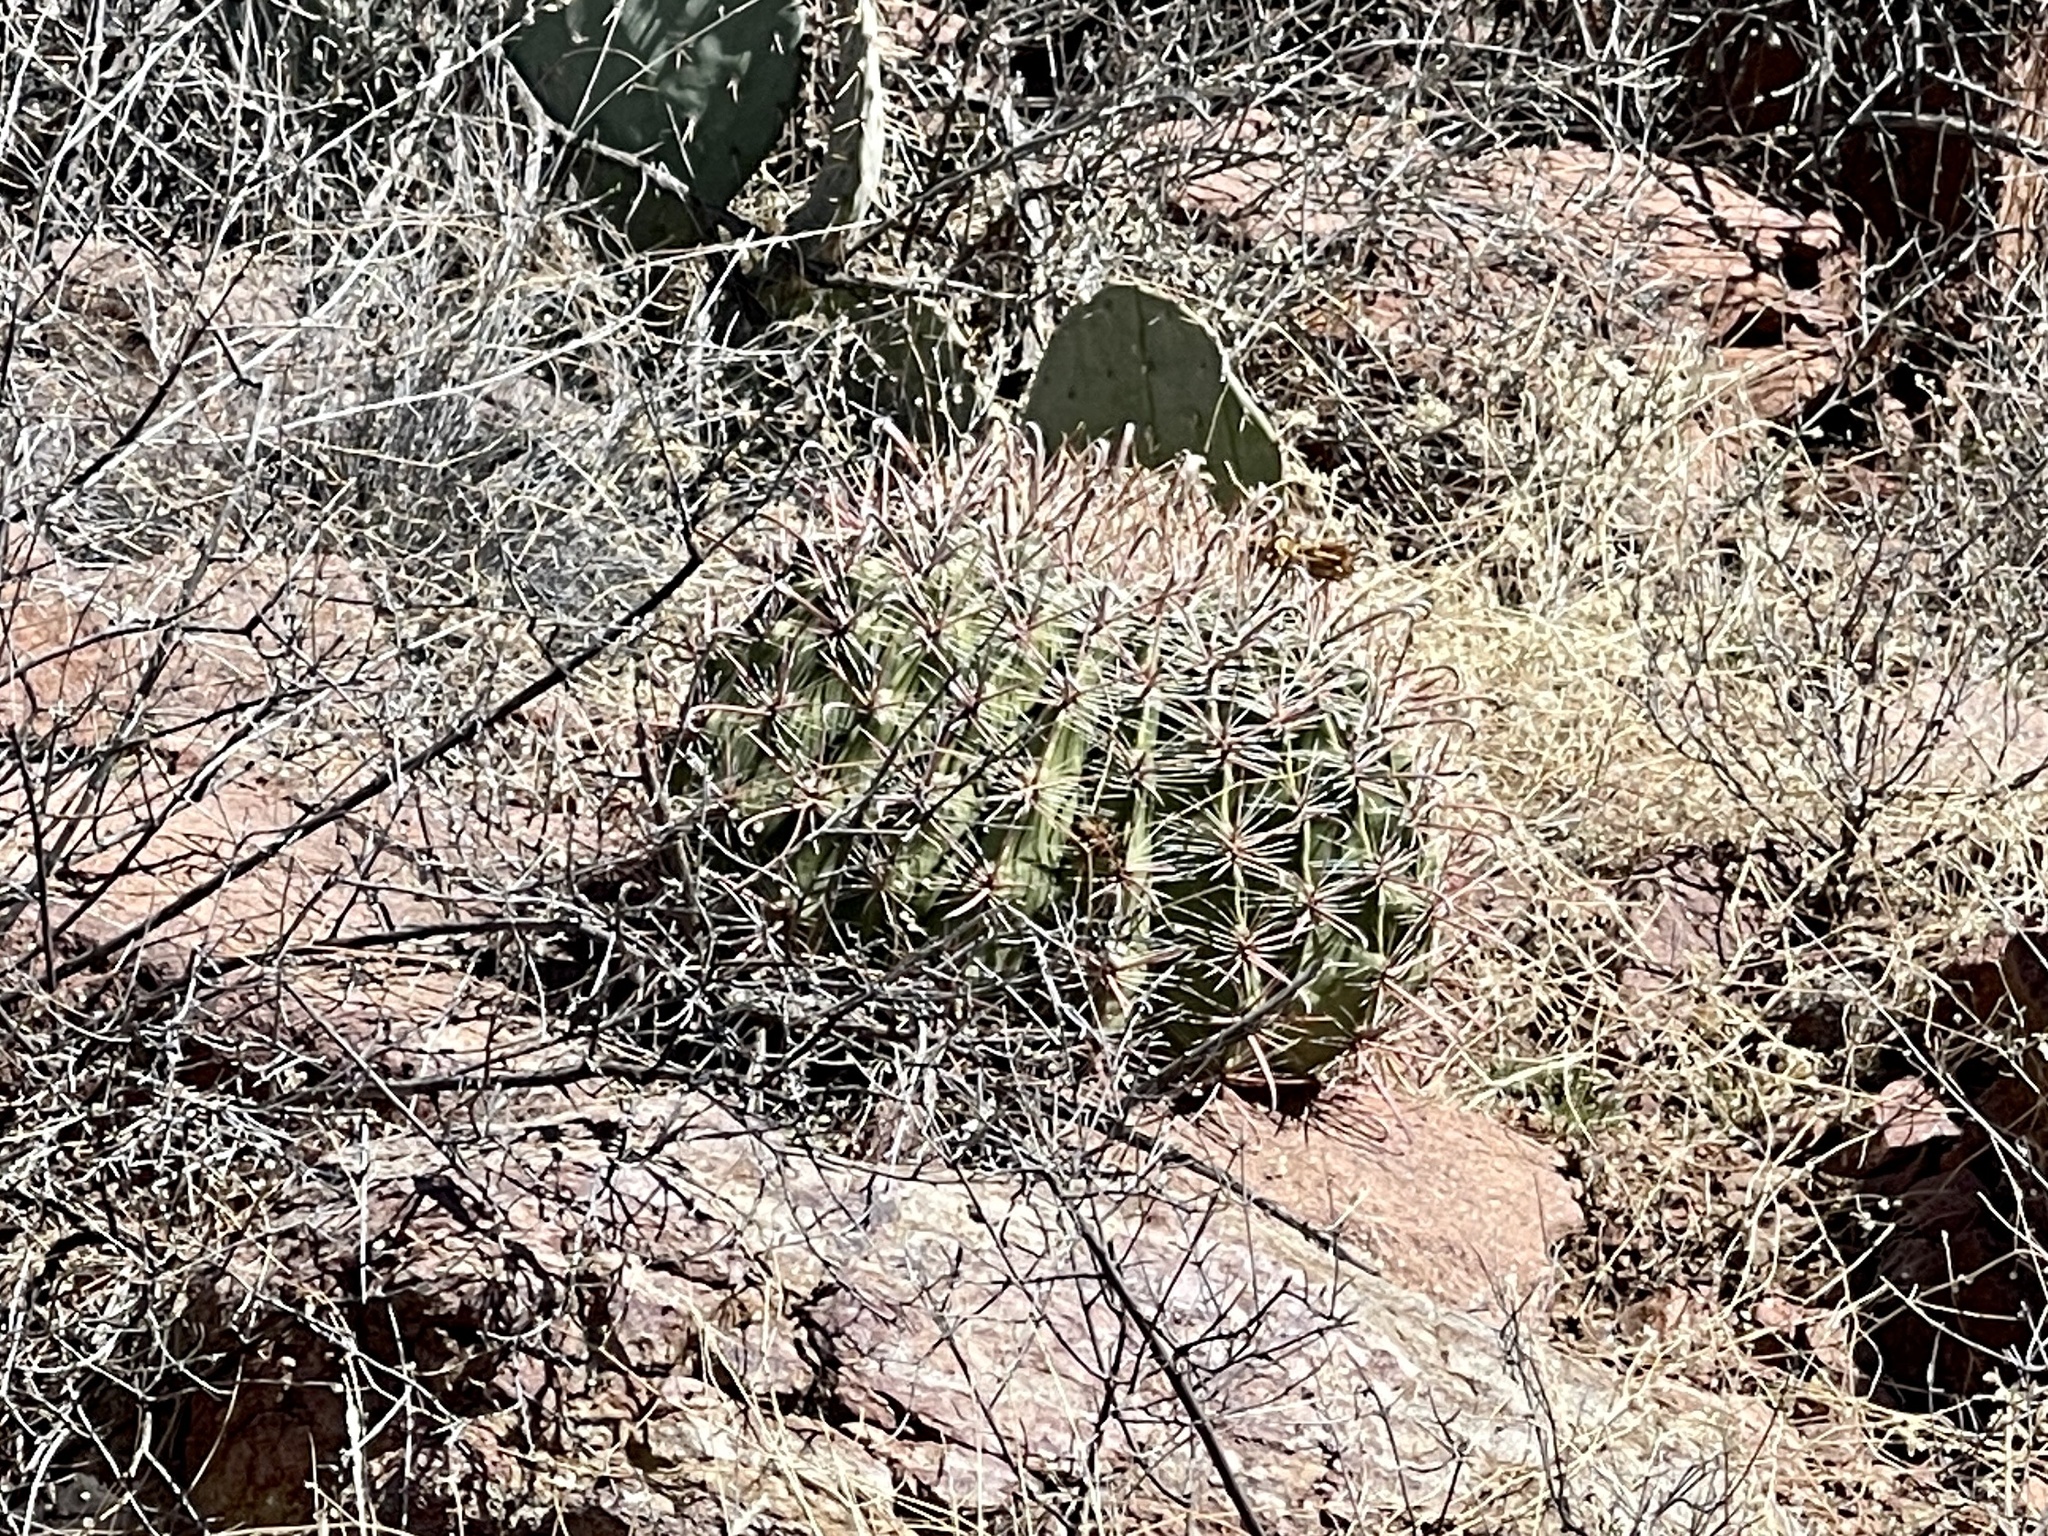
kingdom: Plantae
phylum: Tracheophyta
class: Magnoliopsida
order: Caryophyllales
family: Cactaceae
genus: Ferocactus
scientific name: Ferocactus wislizeni
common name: Candy barrel cactus
